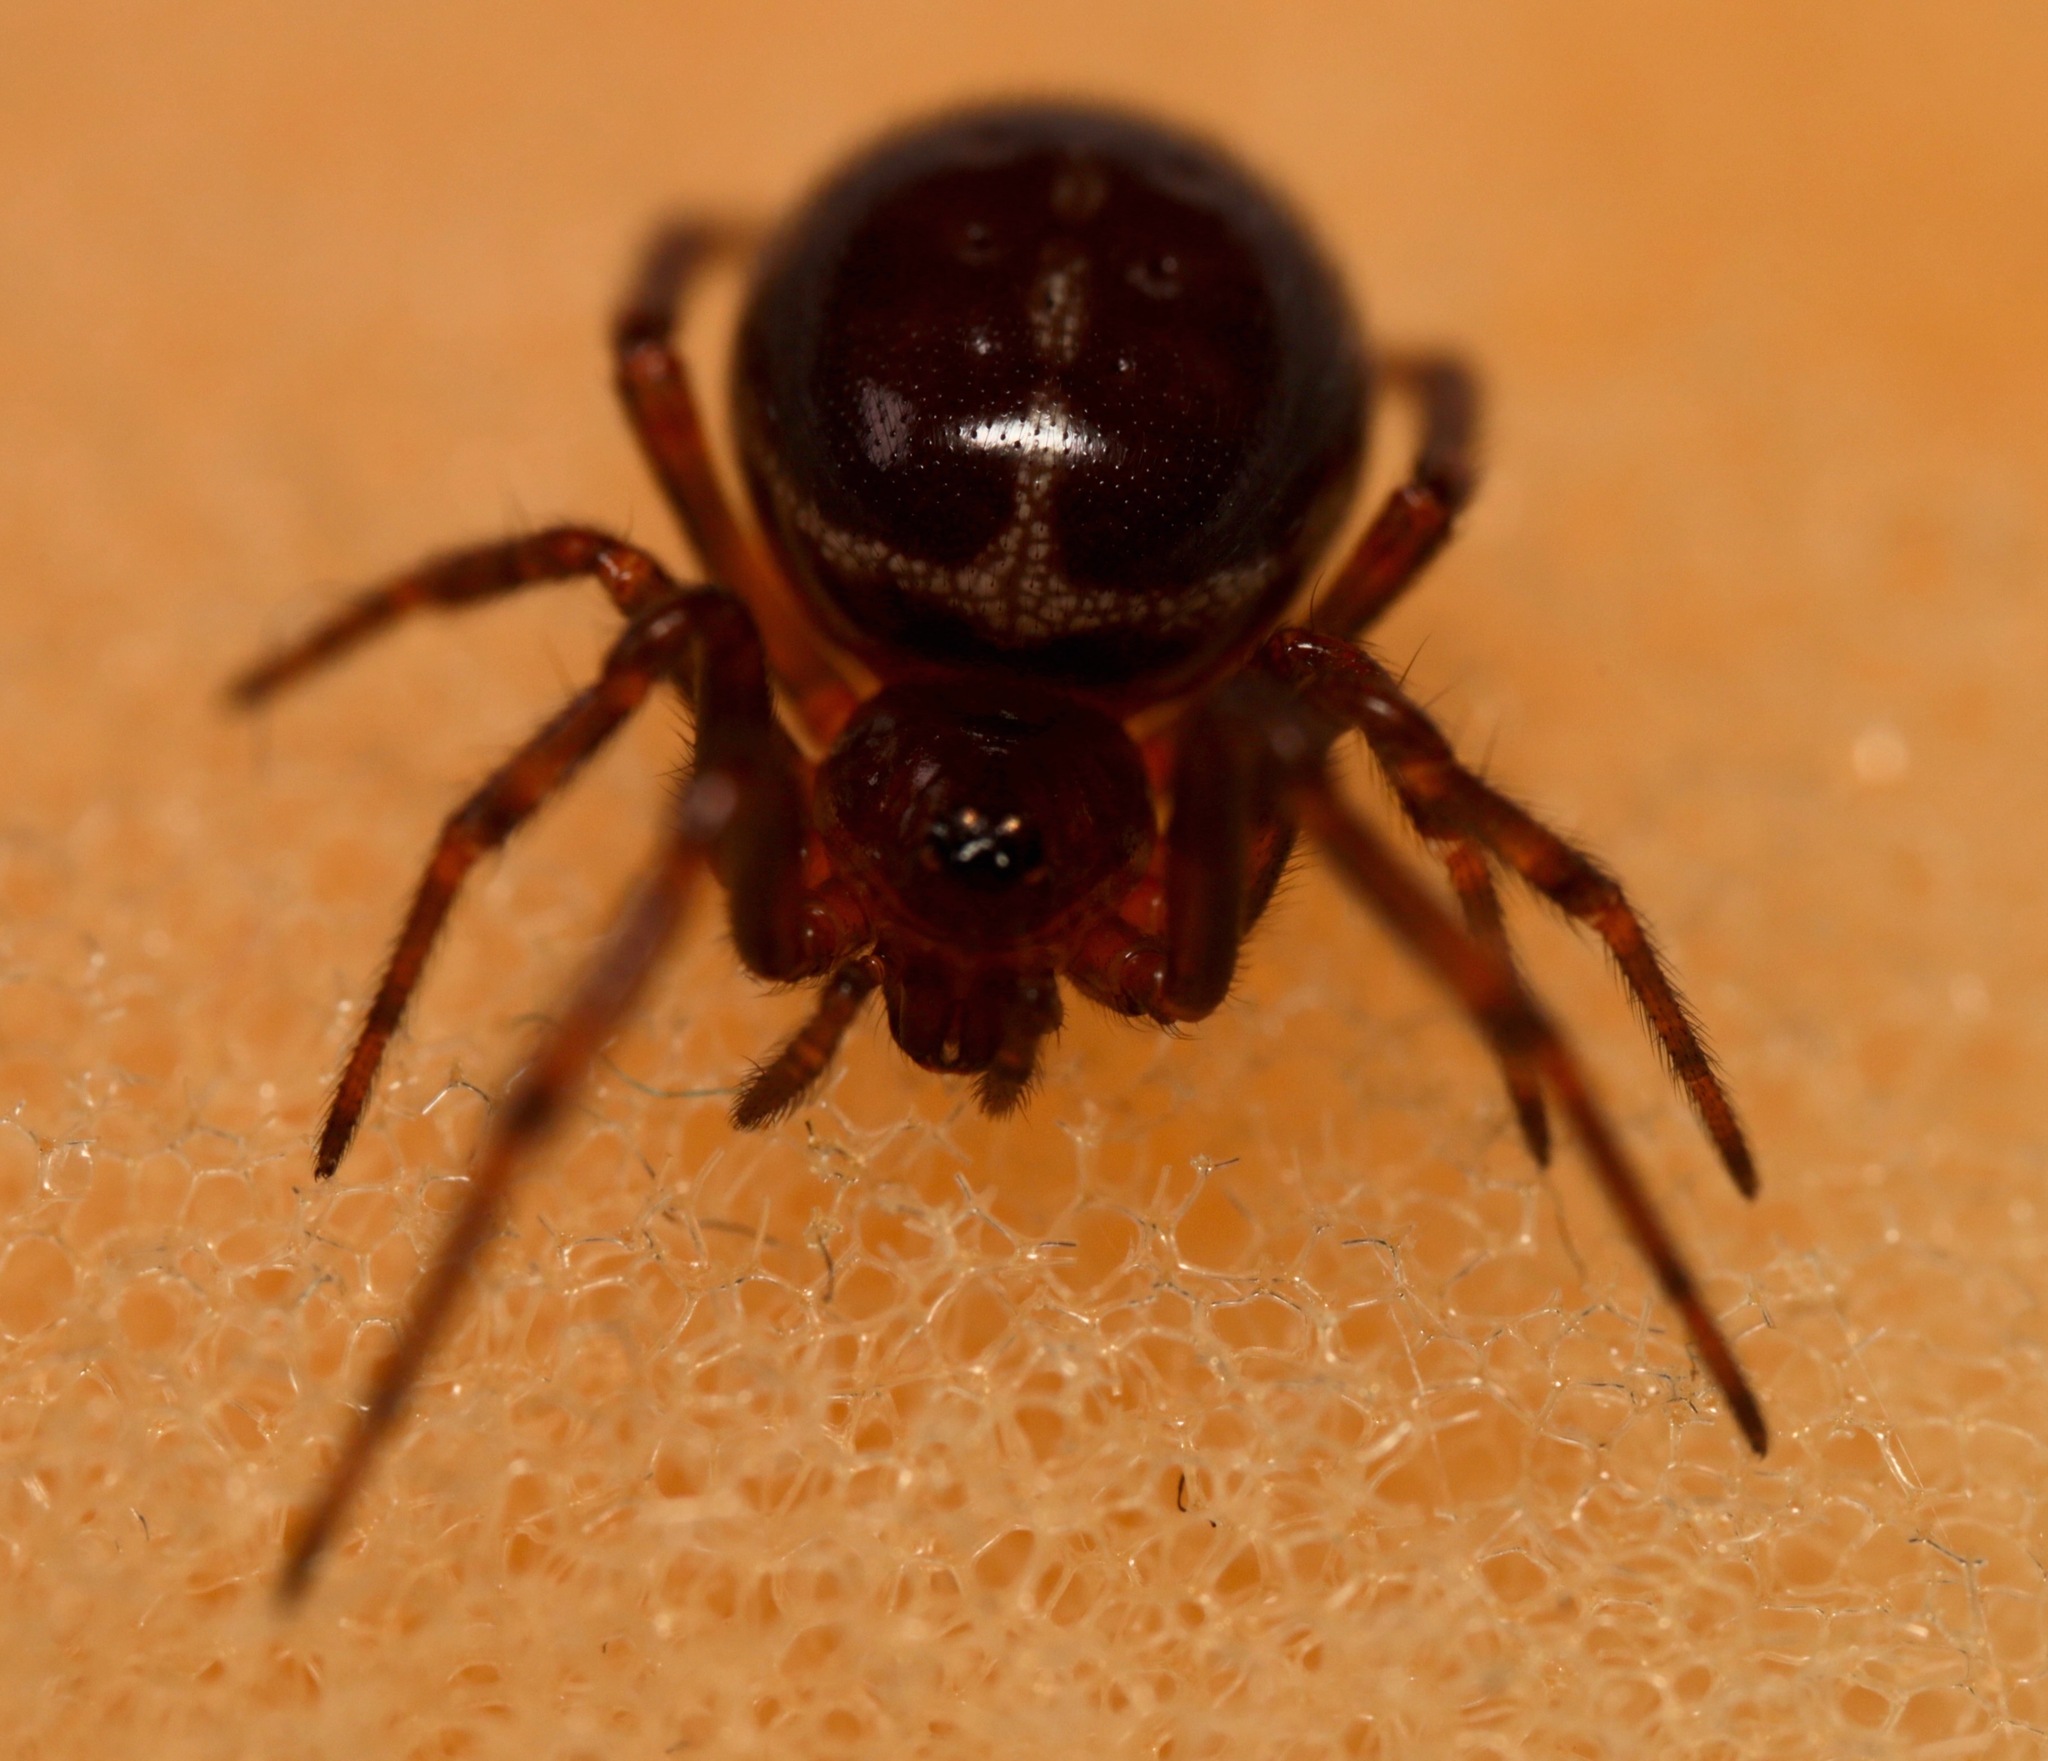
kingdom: Animalia
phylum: Arthropoda
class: Arachnida
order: Araneae
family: Theridiidae
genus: Steatoda
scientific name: Steatoda borealis
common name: Boreal combfoot
